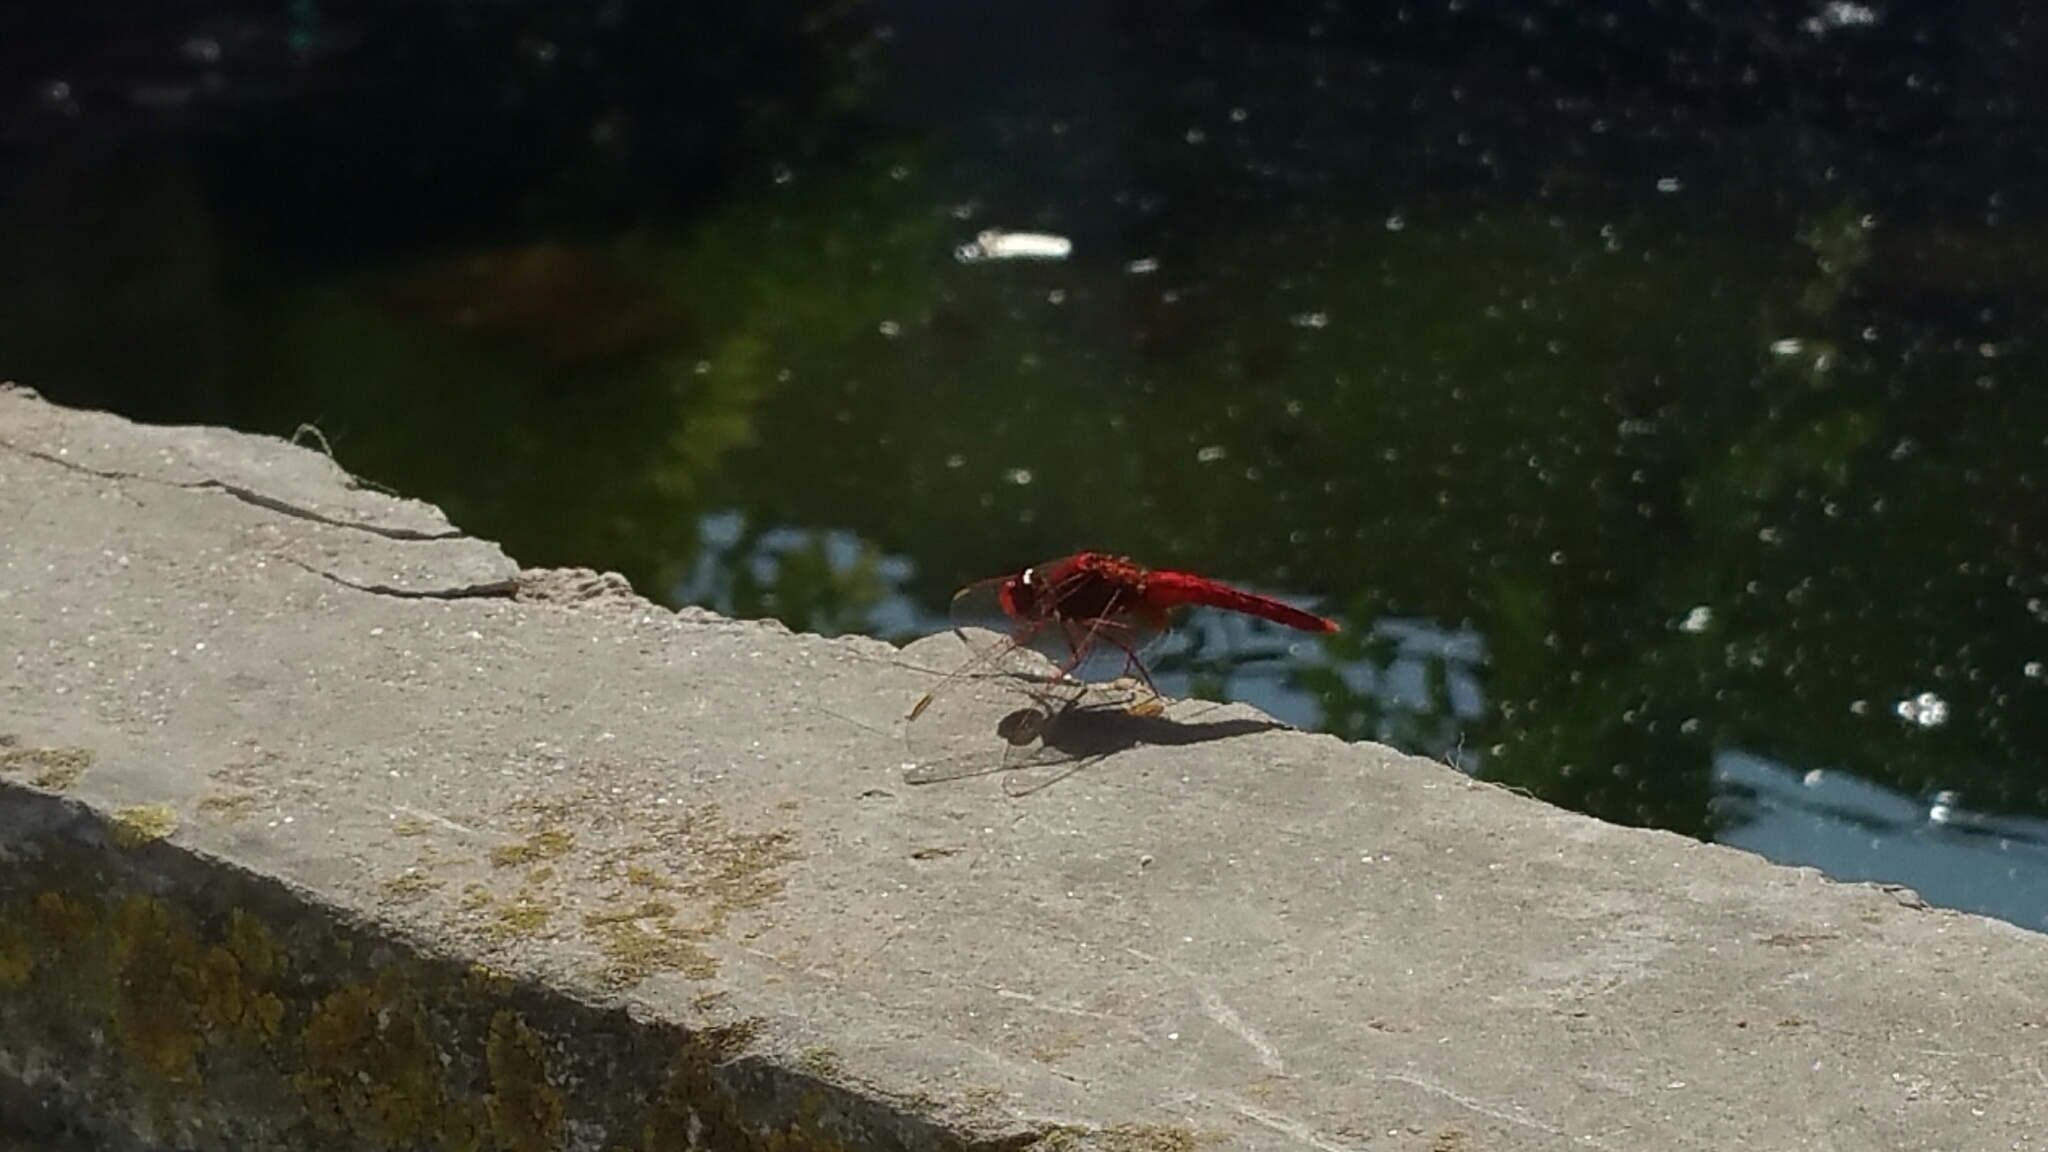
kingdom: Animalia
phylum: Arthropoda
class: Insecta
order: Odonata
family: Libellulidae
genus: Crocothemis
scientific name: Crocothemis erythraea
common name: Scarlet dragonfly
